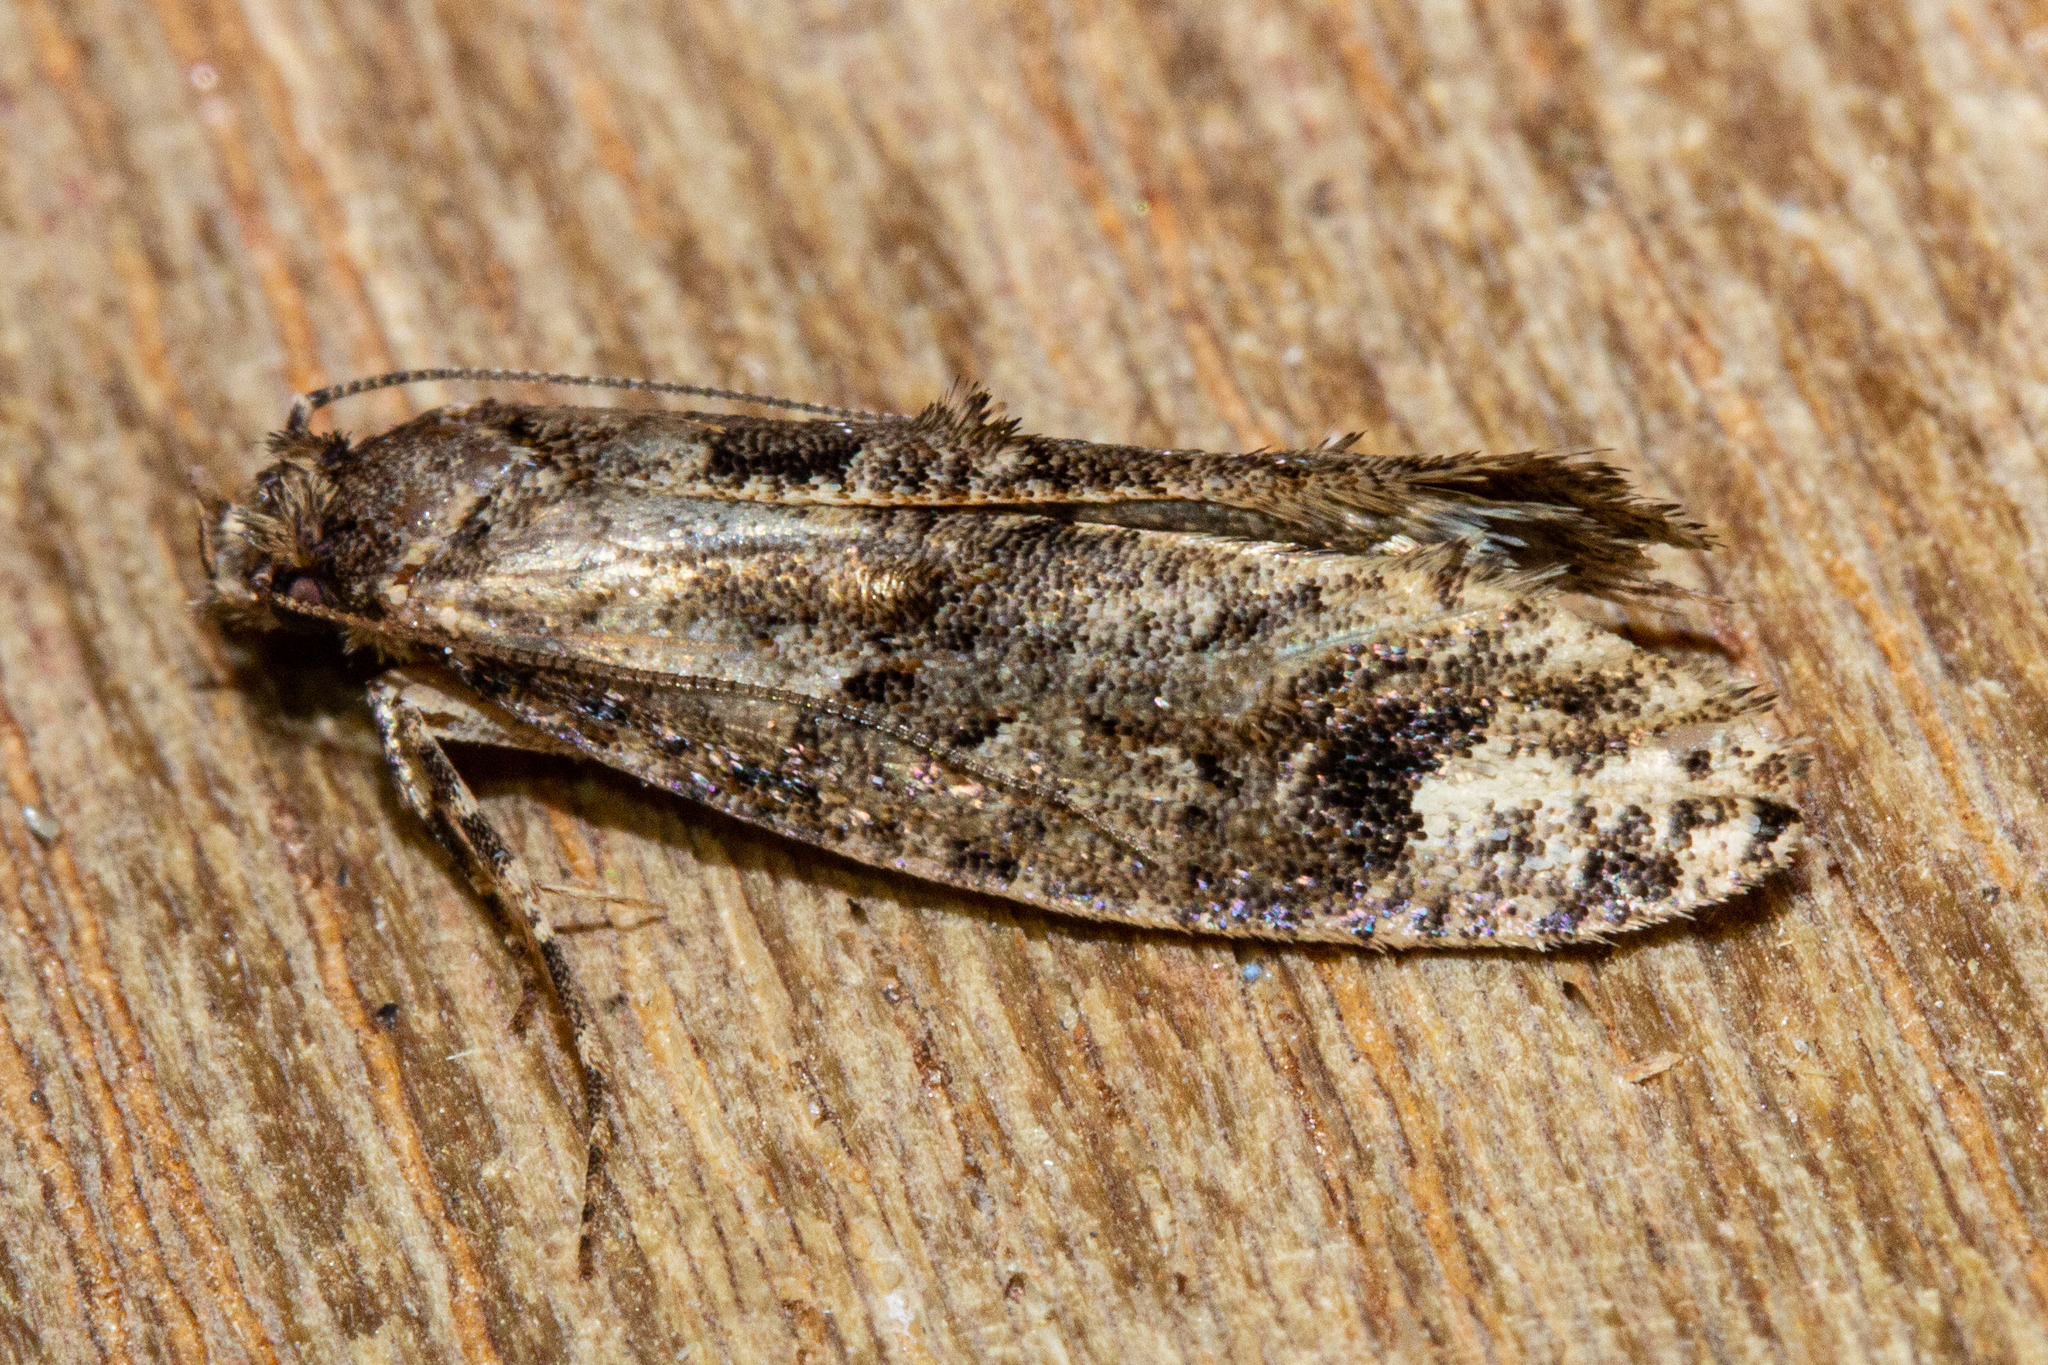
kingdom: Animalia
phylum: Arthropoda
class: Insecta
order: Lepidoptera
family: Tineidae
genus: Lysiphragma
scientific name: Lysiphragma epixyla
